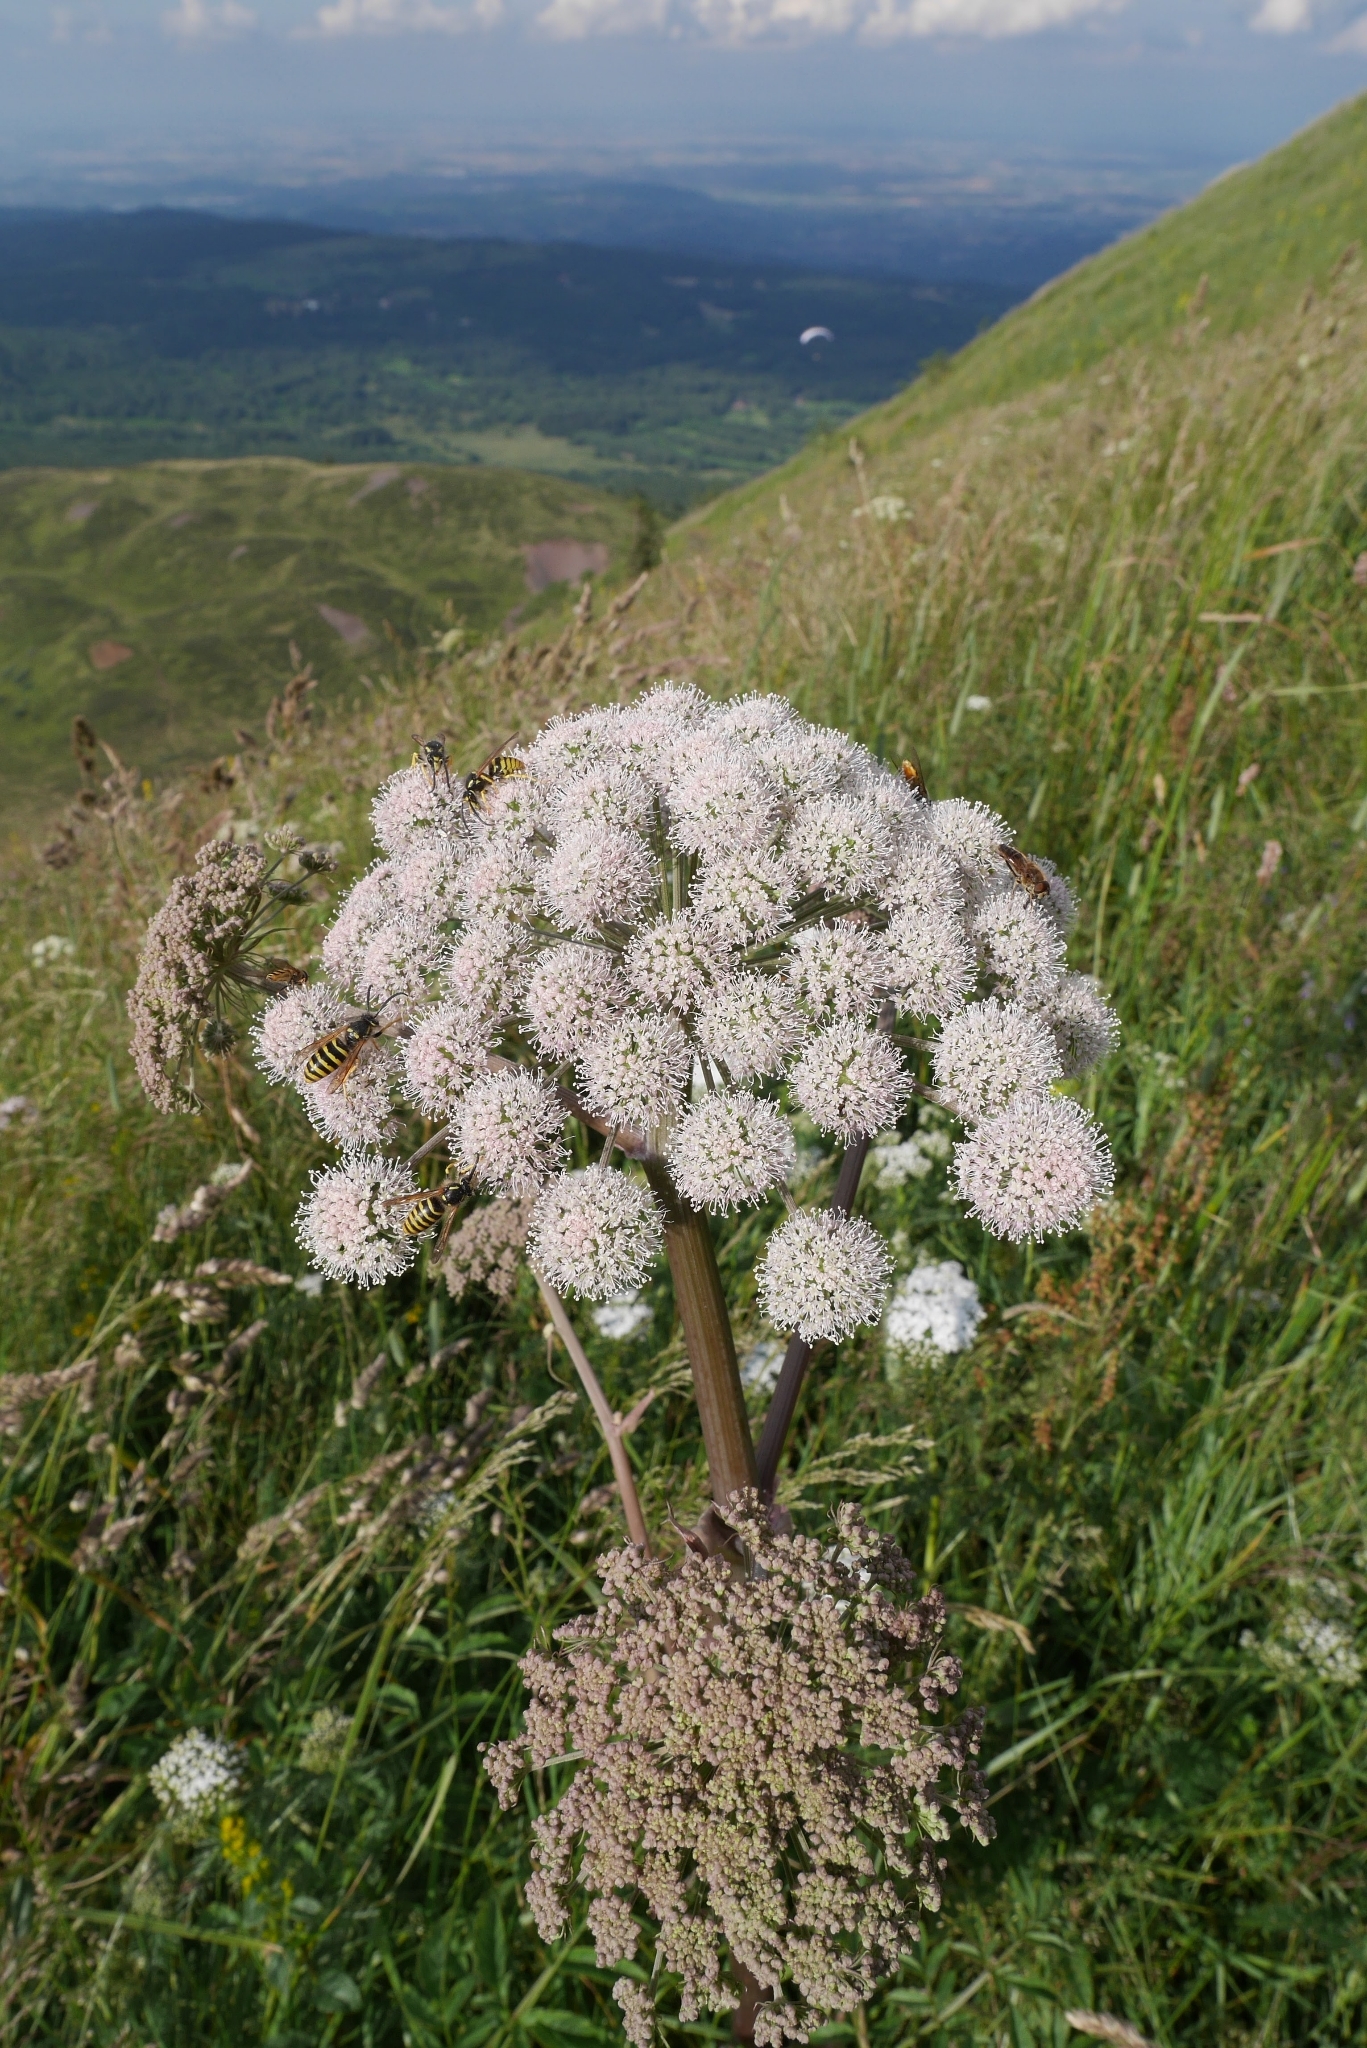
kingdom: Plantae
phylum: Tracheophyta
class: Magnoliopsida
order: Apiales
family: Apiaceae
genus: Angelica
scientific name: Angelica sylvestris
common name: Wild angelica
